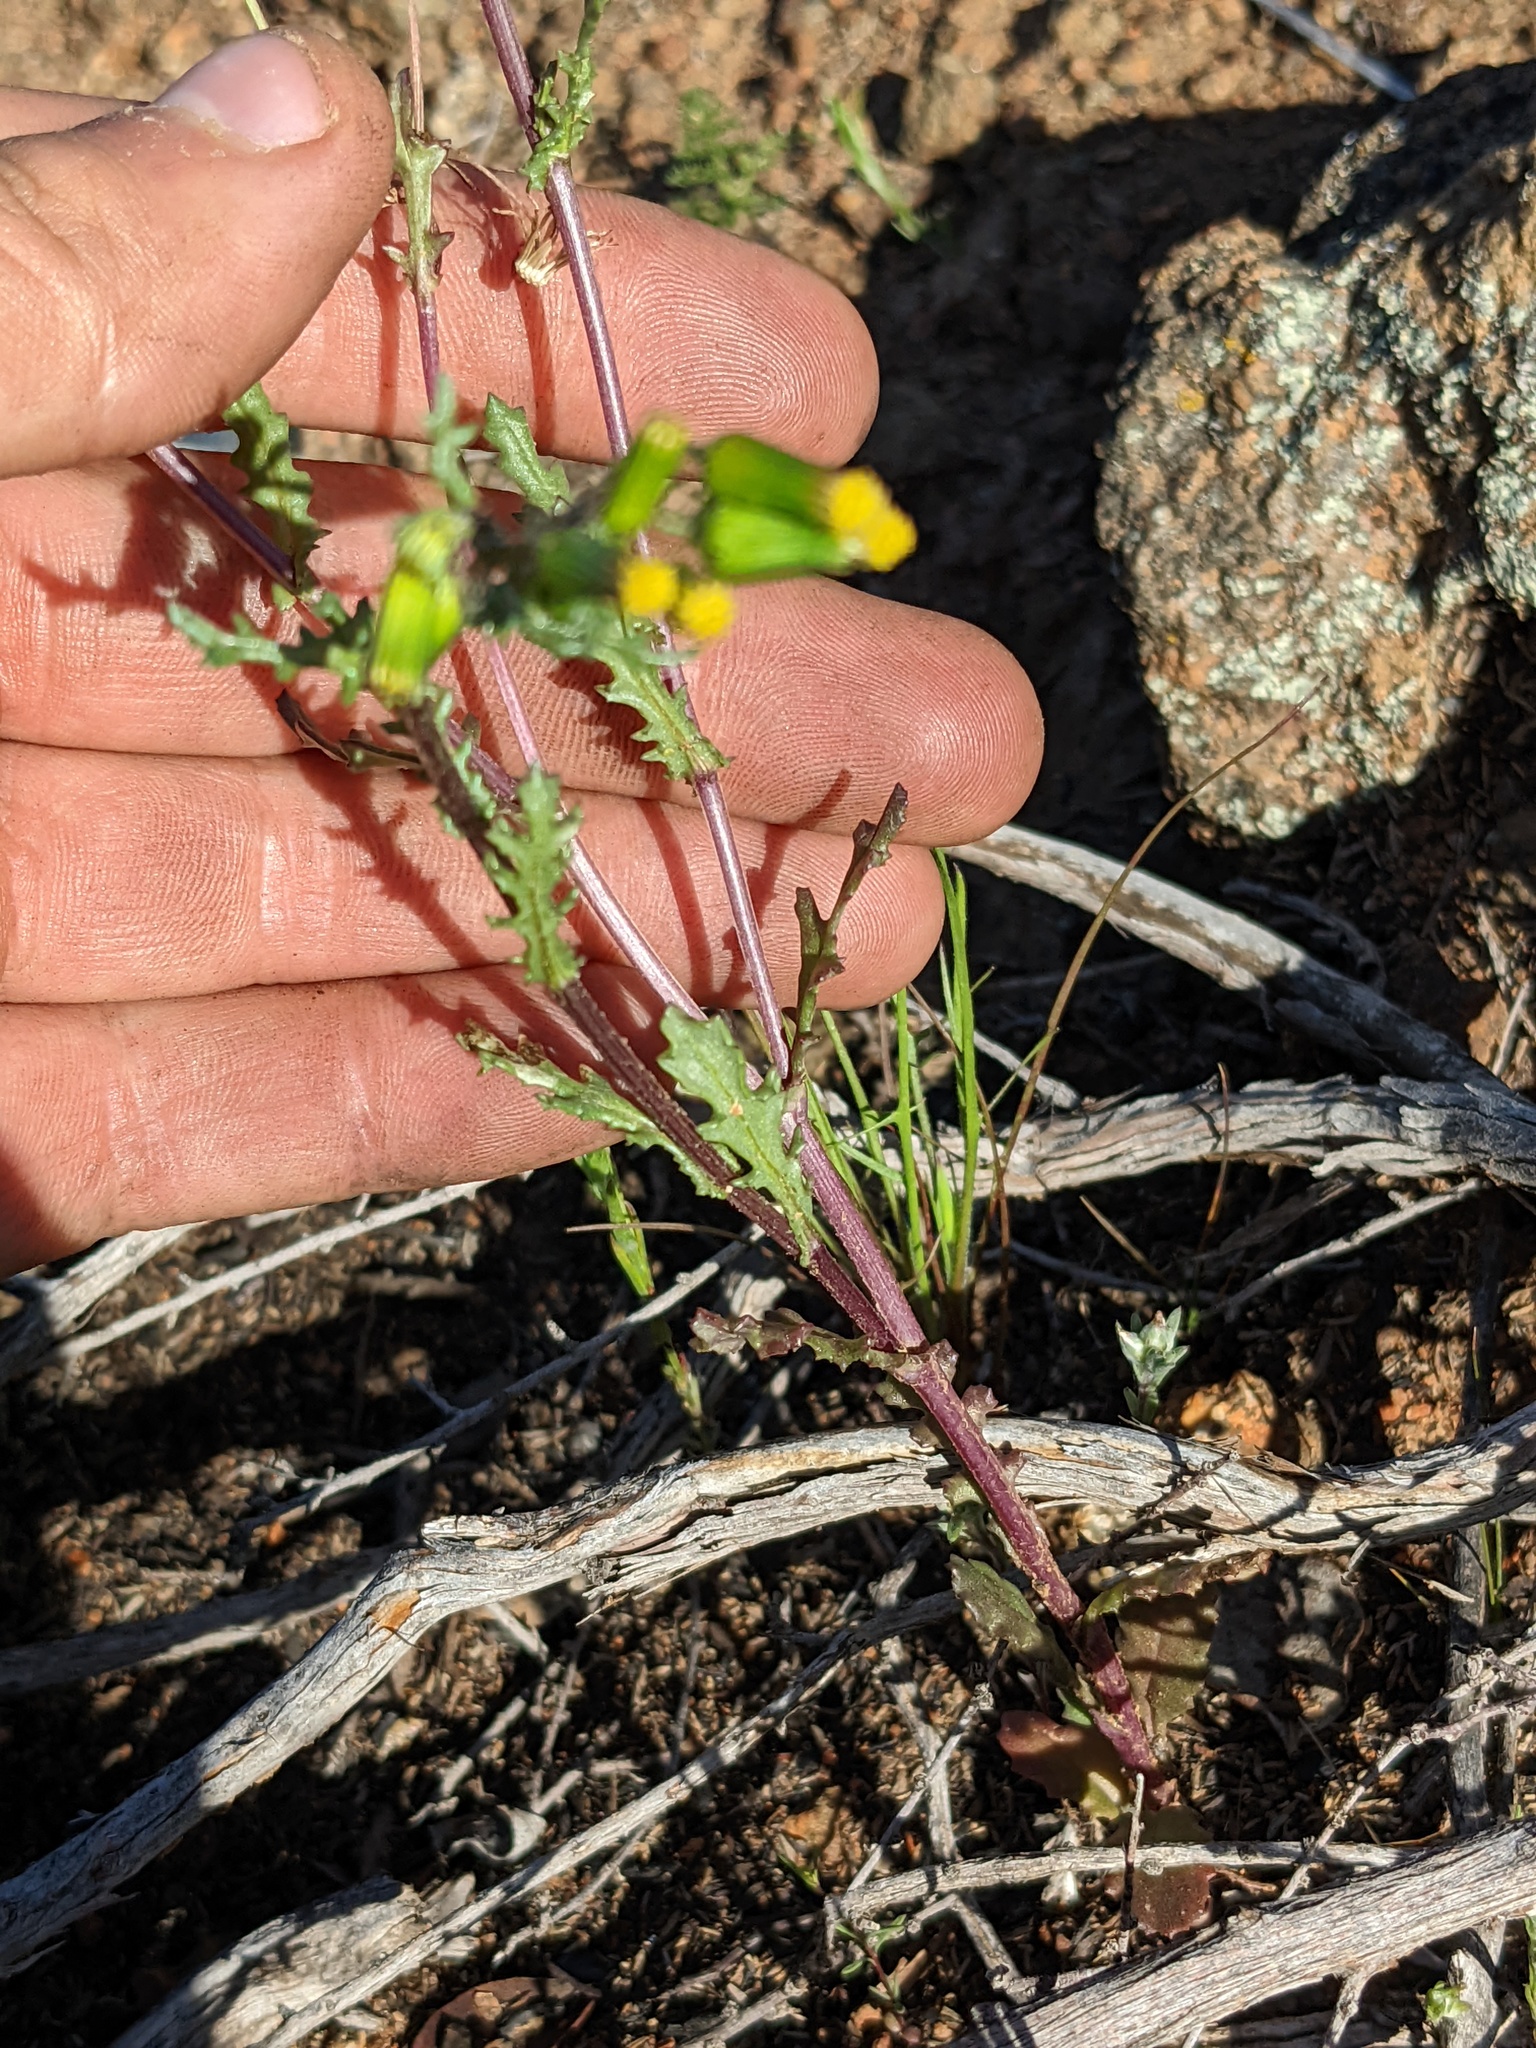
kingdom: Plantae
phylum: Tracheophyta
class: Magnoliopsida
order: Asterales
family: Asteraceae
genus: Senecio
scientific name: Senecio vulgaris
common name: Old-man-in-the-spring
